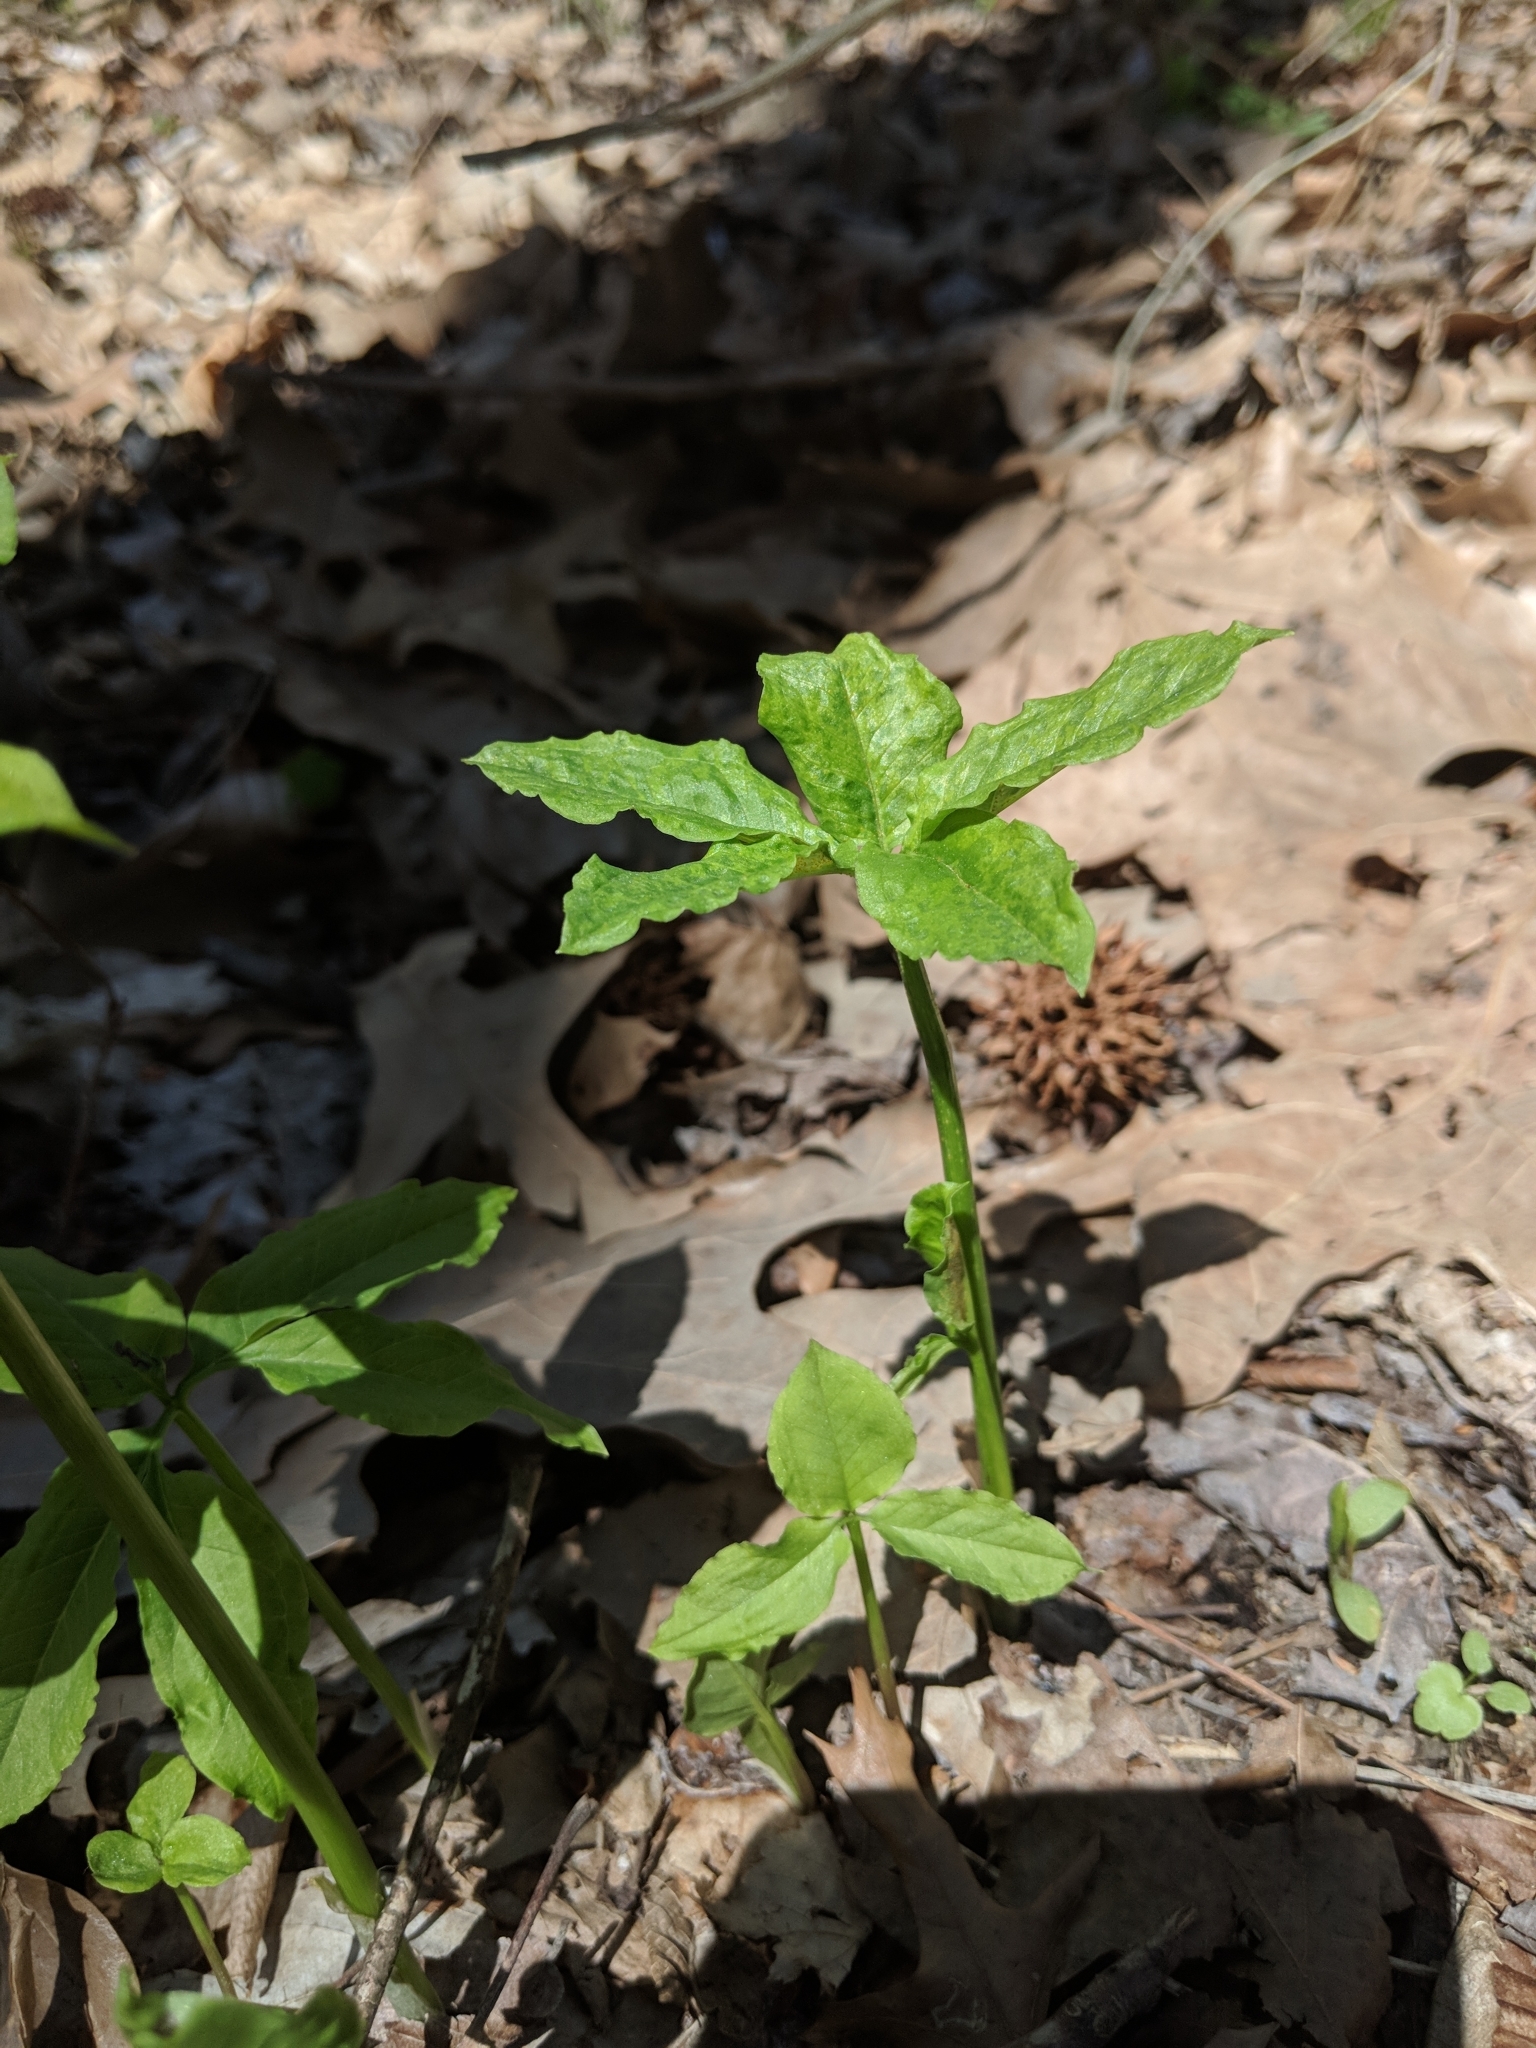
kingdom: Plantae
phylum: Tracheophyta
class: Liliopsida
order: Alismatales
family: Araceae
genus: Arisaema
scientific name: Arisaema dracontium
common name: Dragon-arum
